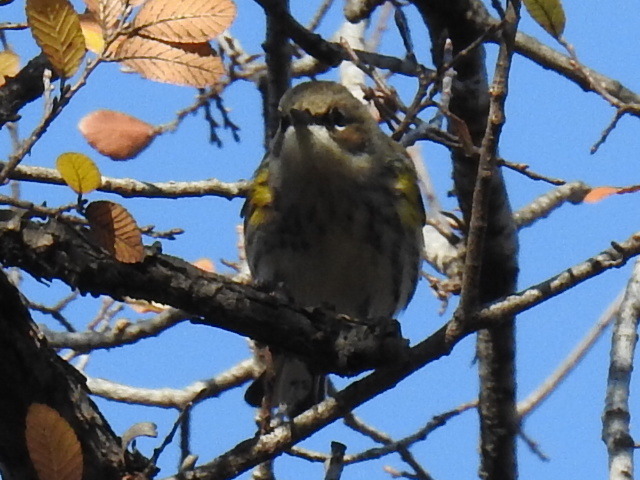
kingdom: Animalia
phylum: Chordata
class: Aves
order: Passeriformes
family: Parulidae
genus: Setophaga
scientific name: Setophaga coronata
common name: Myrtle warbler
